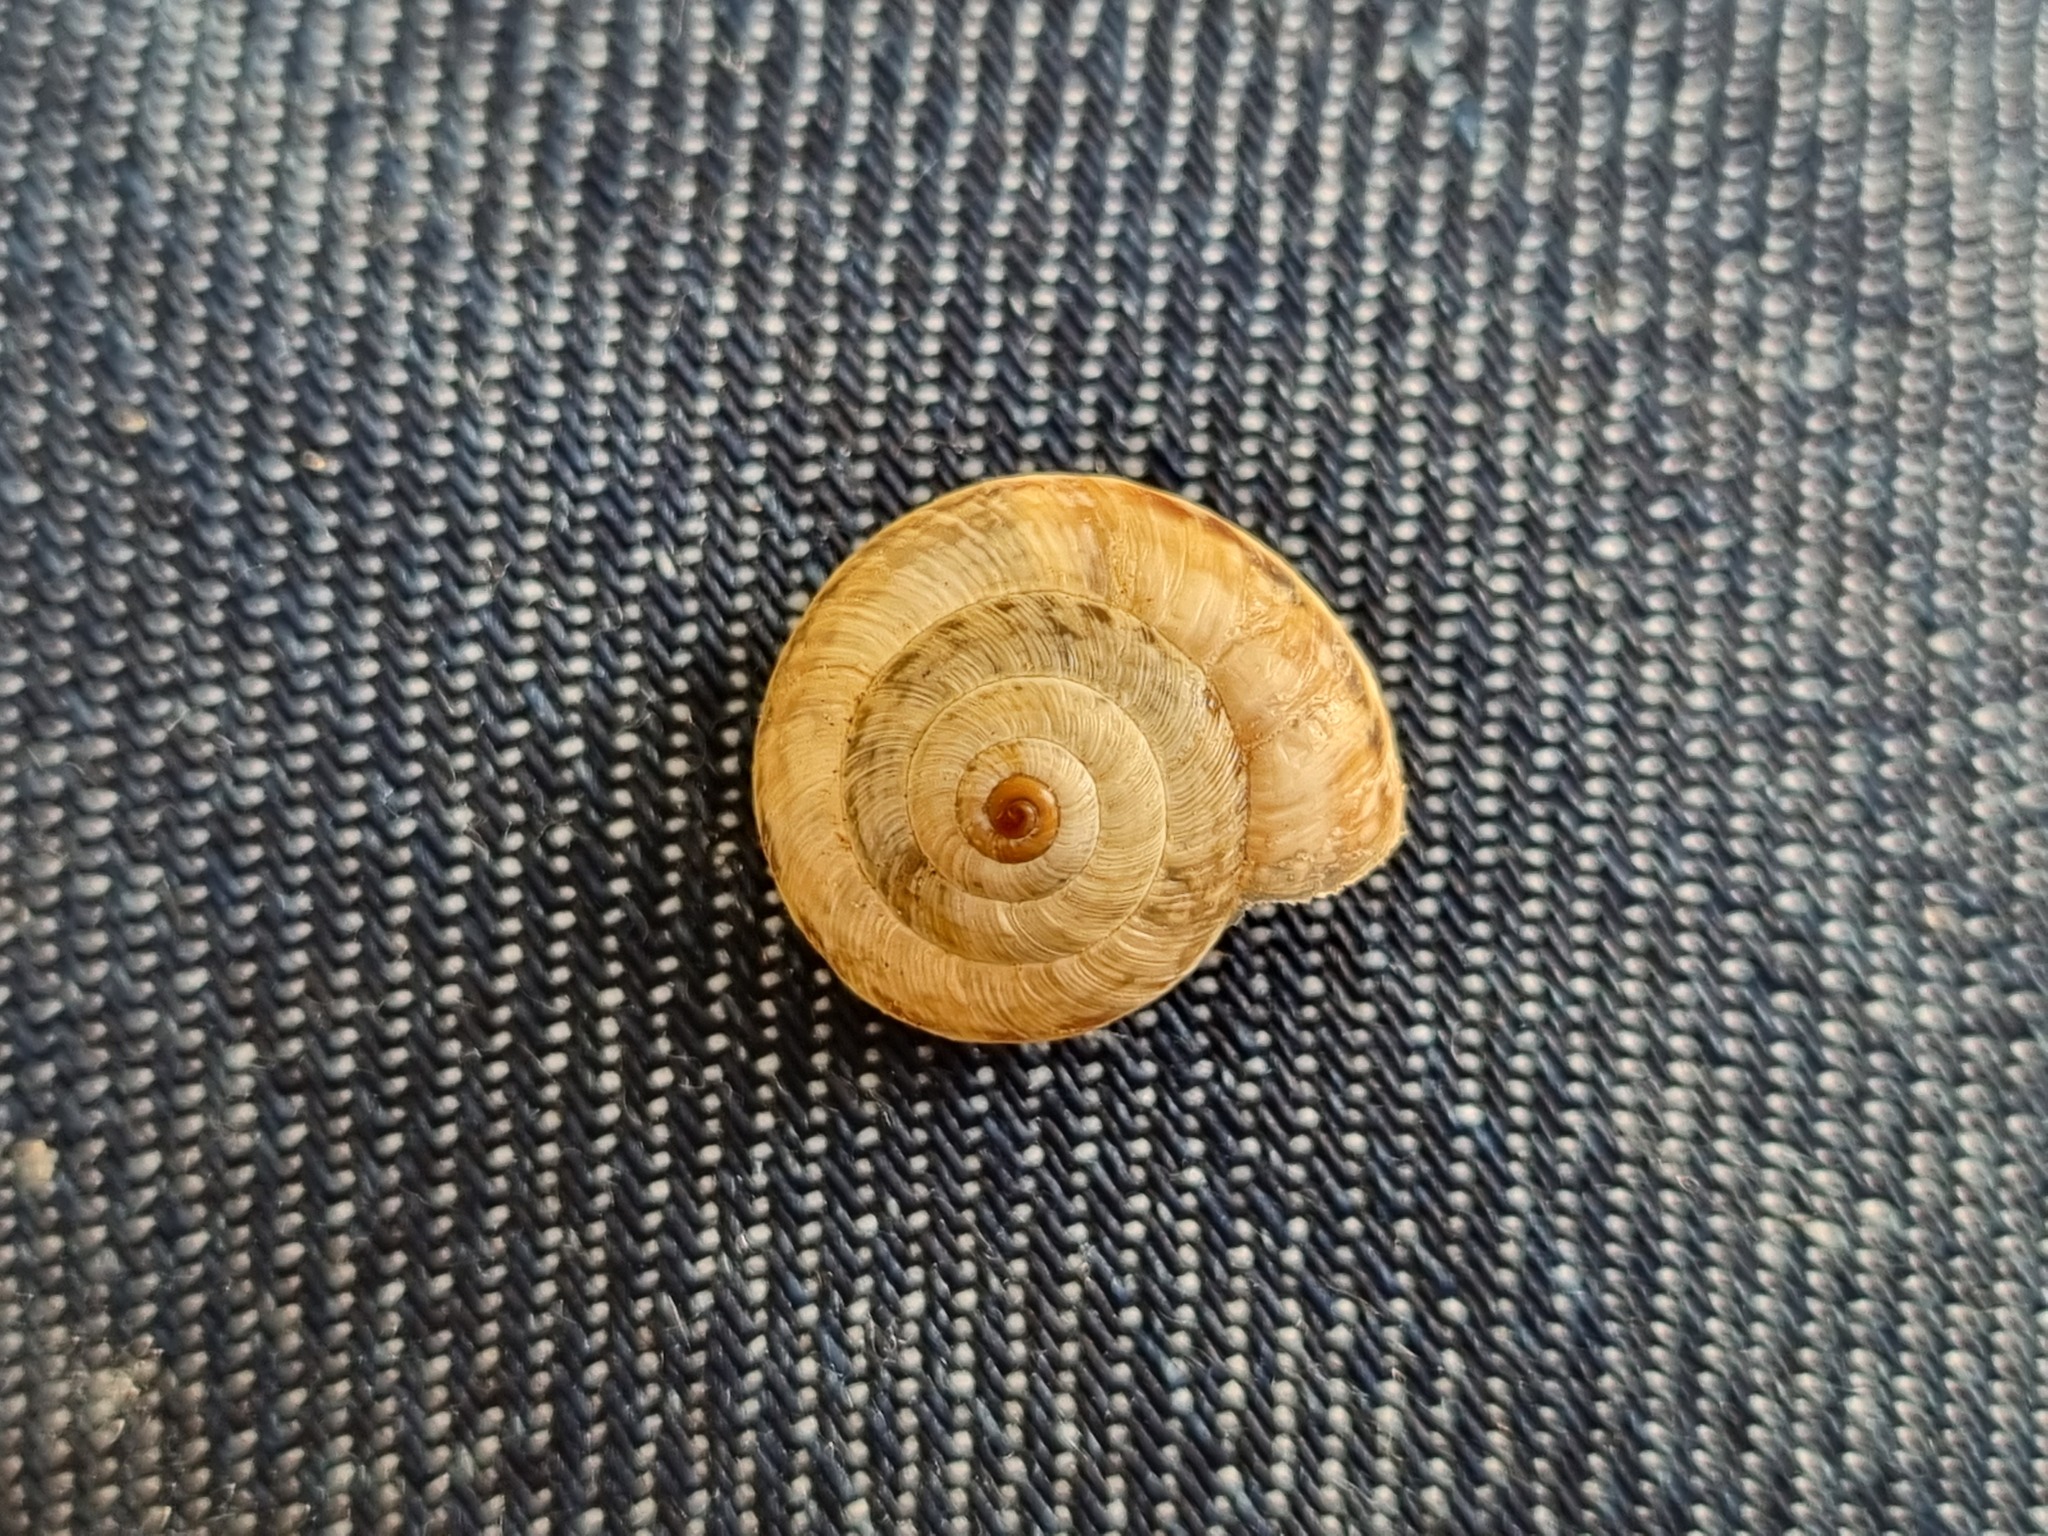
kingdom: Animalia
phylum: Mollusca
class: Gastropoda
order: Stylommatophora
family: Geomitridae
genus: Backeljaia
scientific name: Backeljaia gigaxii
